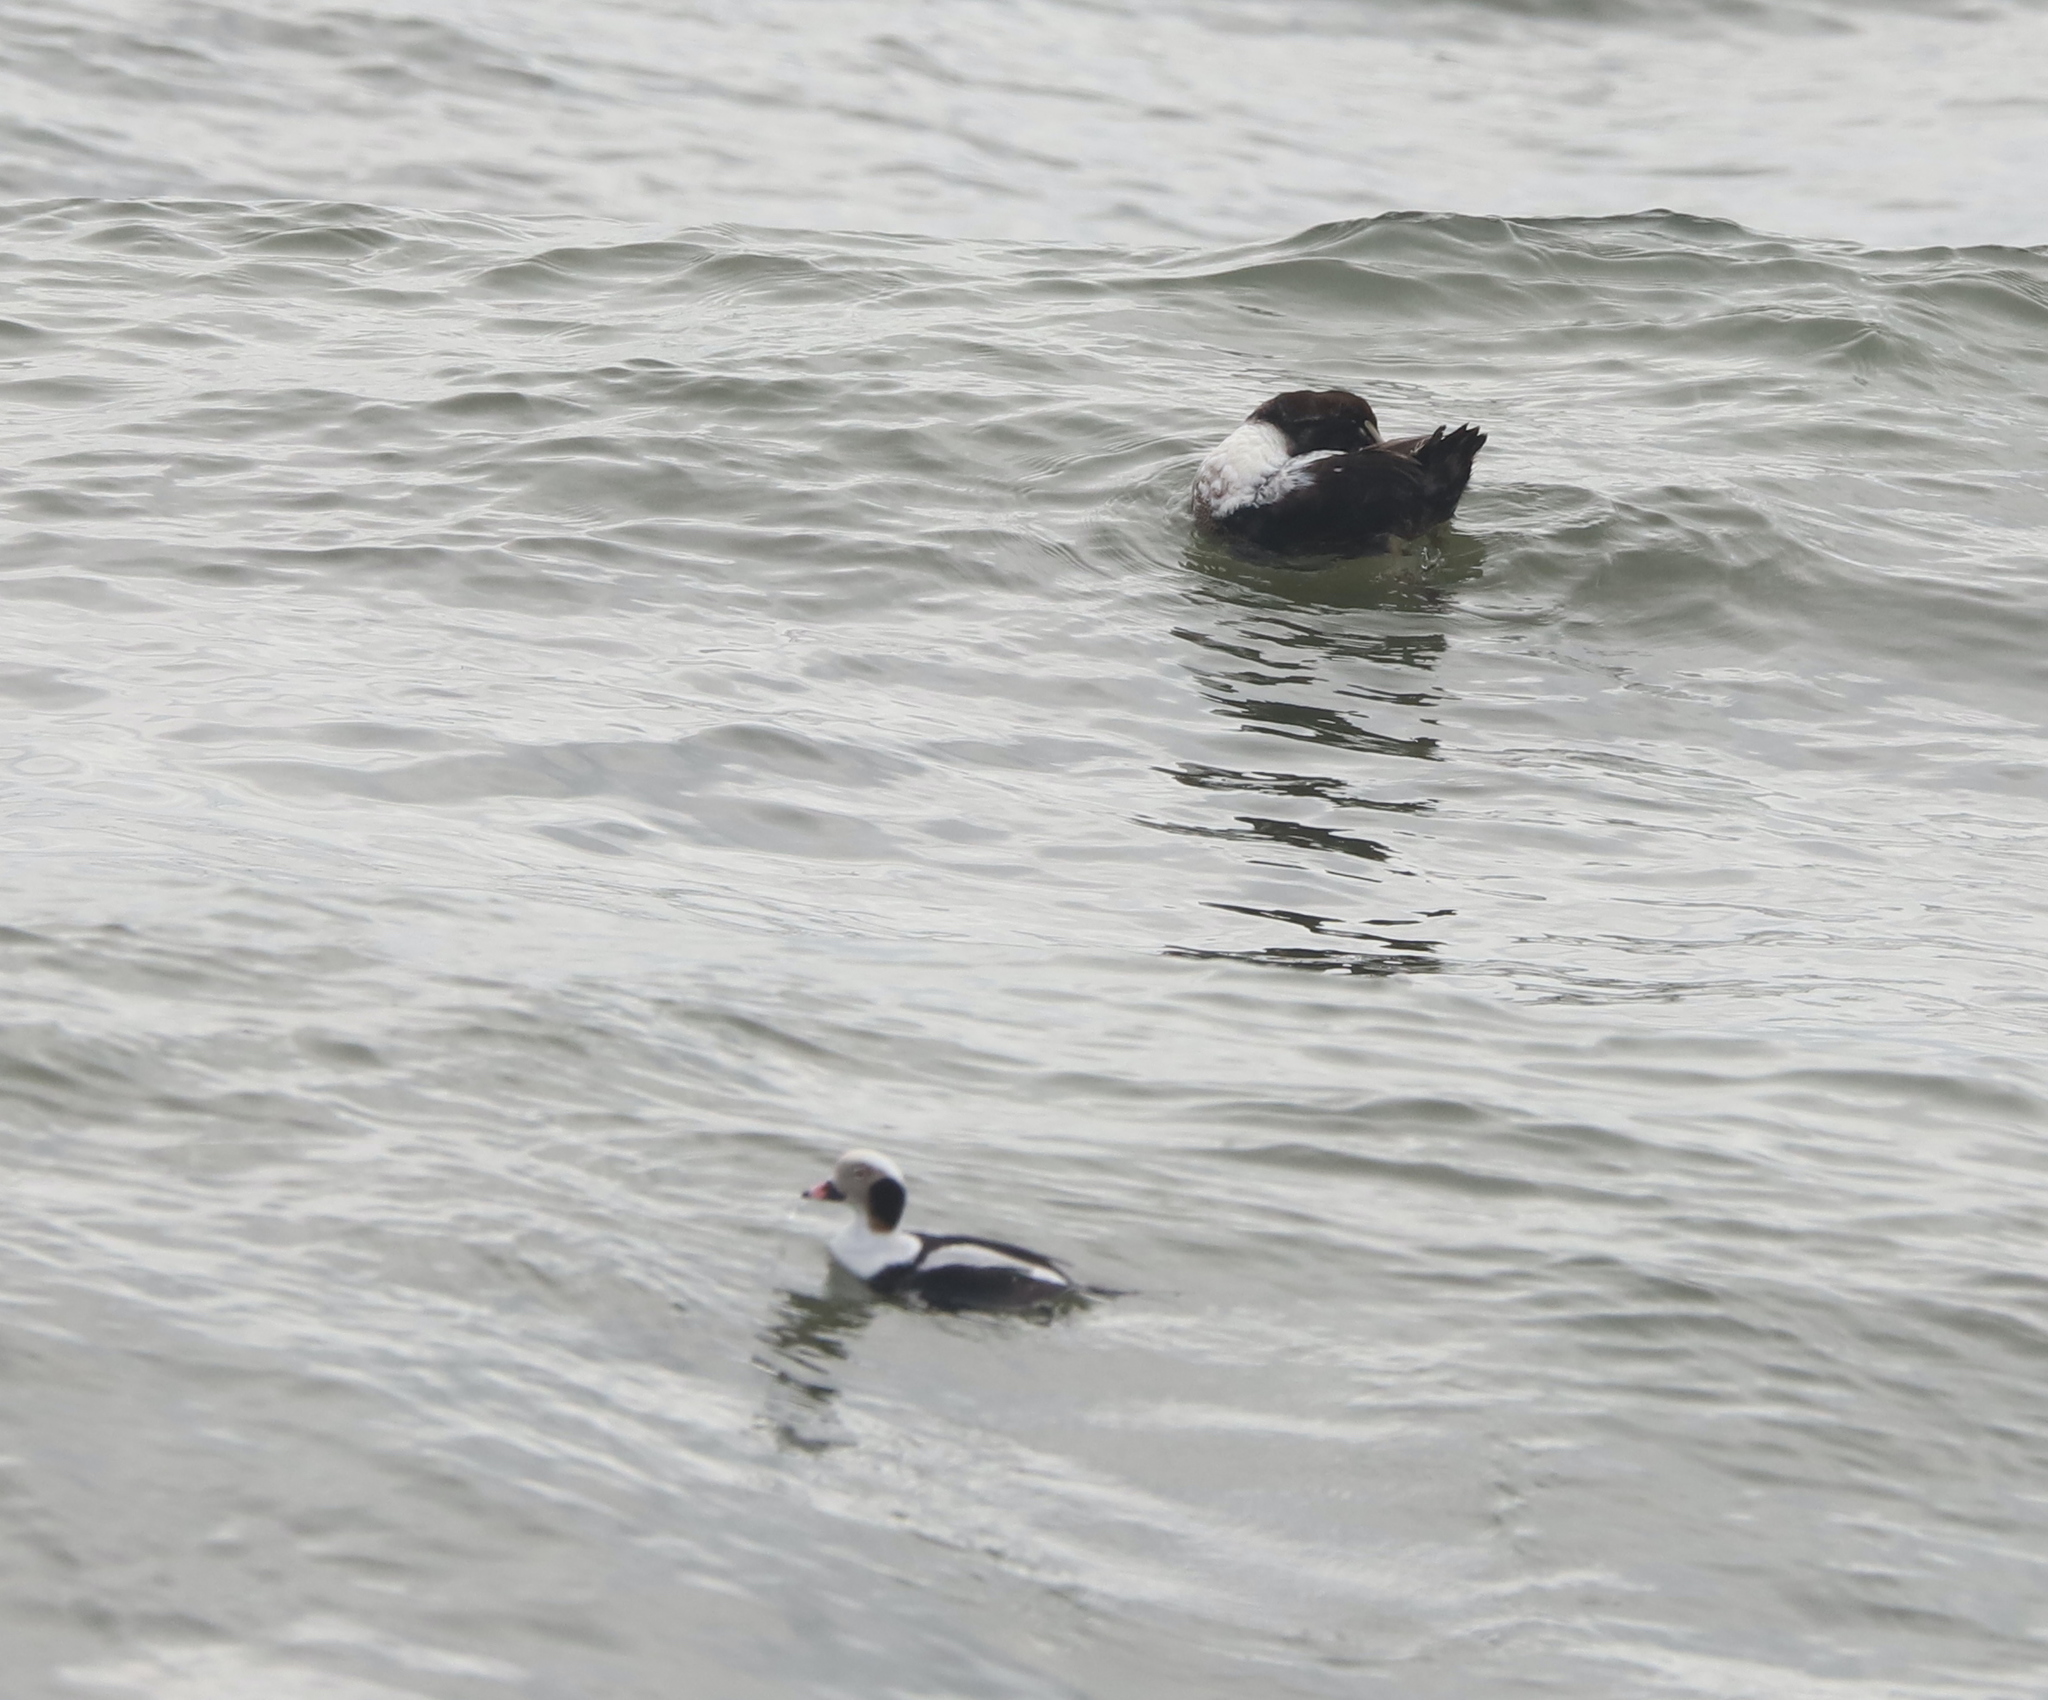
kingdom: Animalia
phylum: Chordata
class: Aves
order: Anseriformes
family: Anatidae
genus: Clangula
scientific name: Clangula hyemalis
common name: Long-tailed duck
